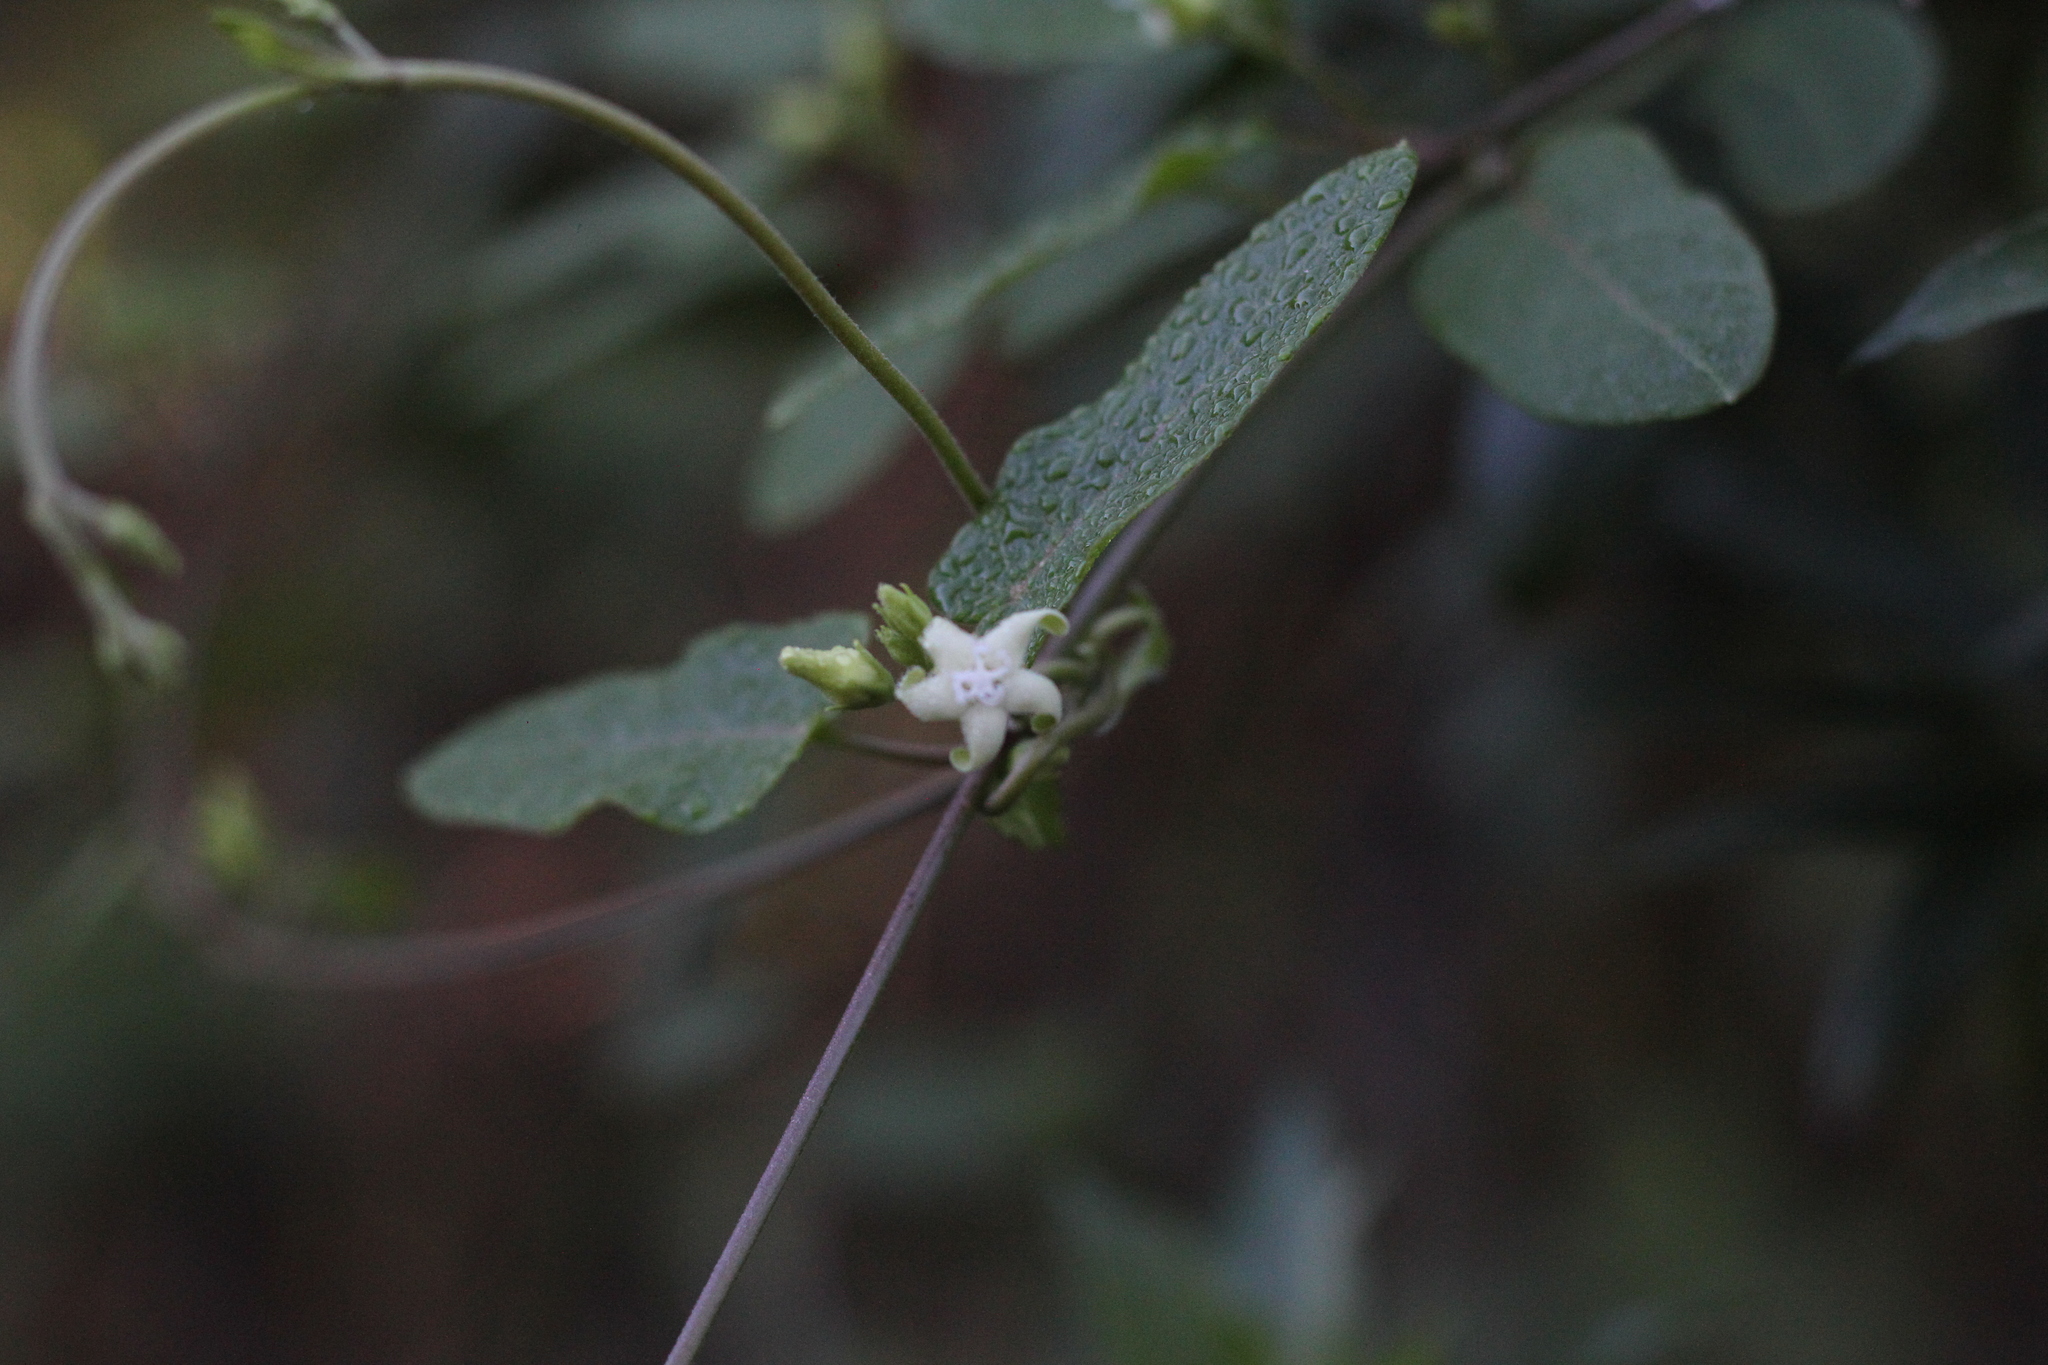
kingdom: Plantae
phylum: Tracheophyta
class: Magnoliopsida
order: Gentianales
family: Apocynaceae
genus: Oxypetalum
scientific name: Oxypetalum sylvestre
